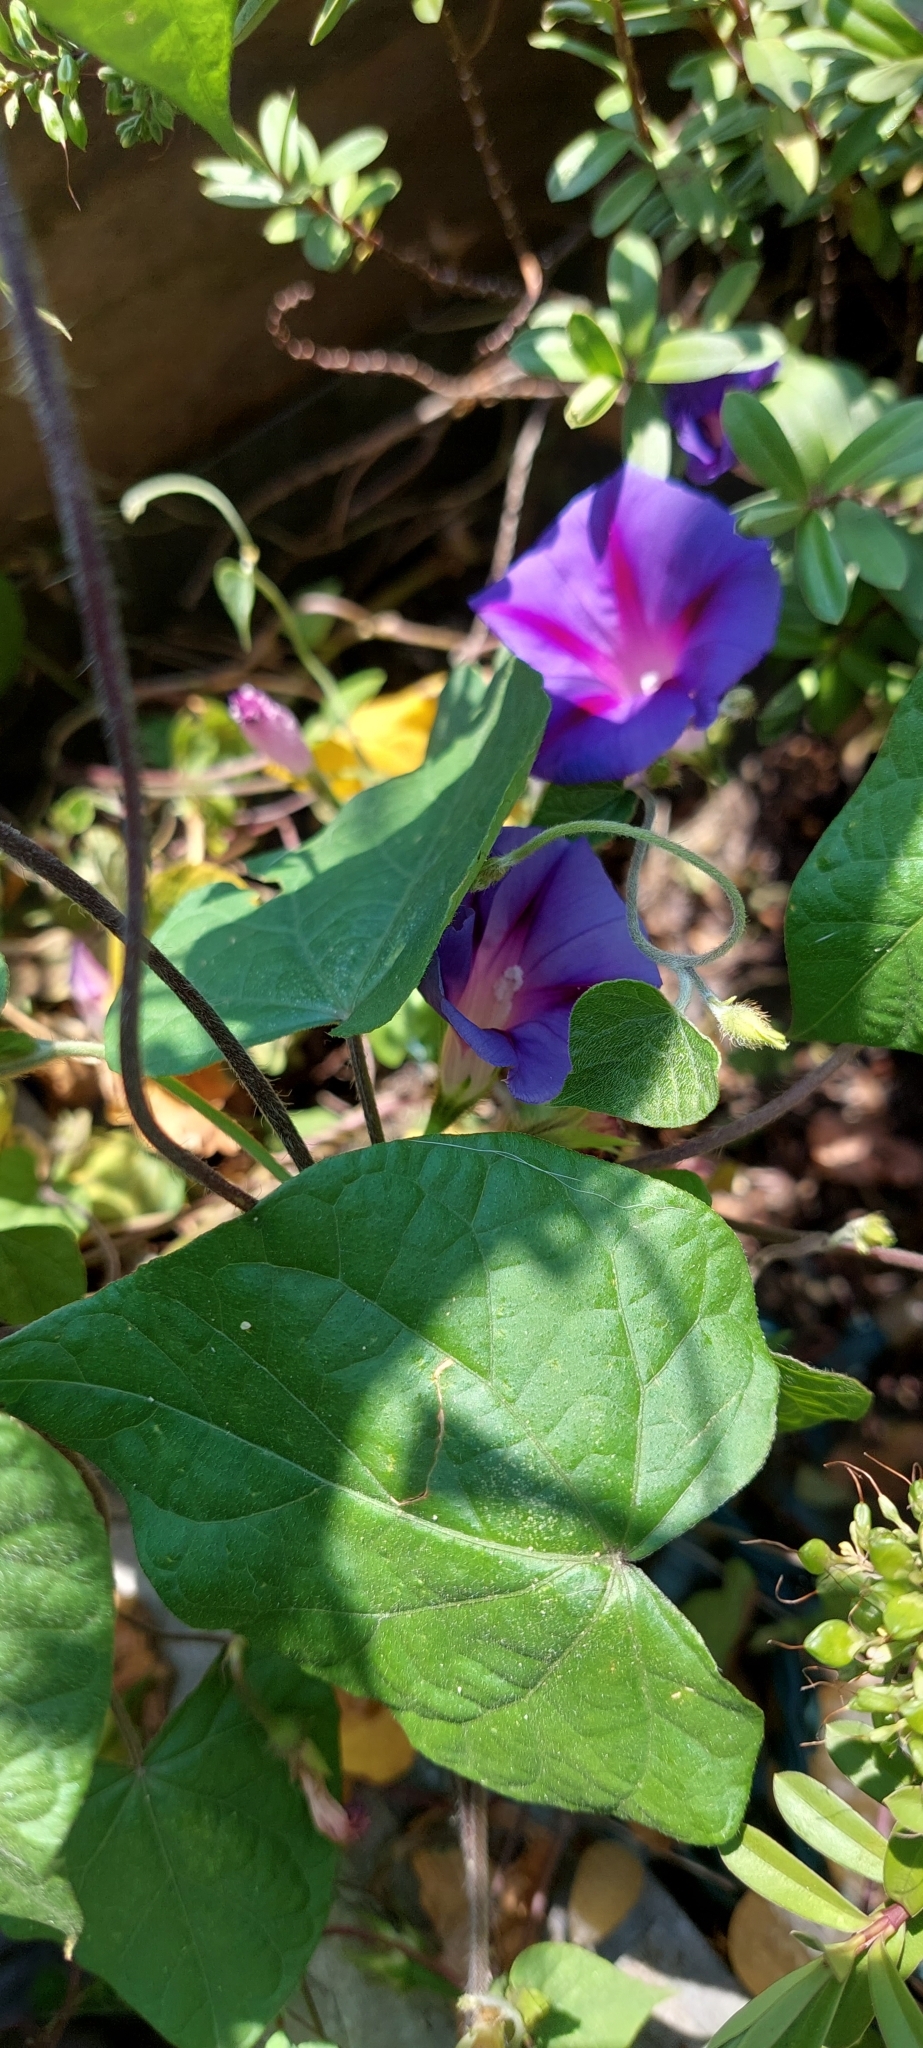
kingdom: Plantae
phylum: Tracheophyta
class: Magnoliopsida
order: Solanales
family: Convolvulaceae
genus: Ipomoea
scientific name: Ipomoea purpurea
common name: Common morning-glory
